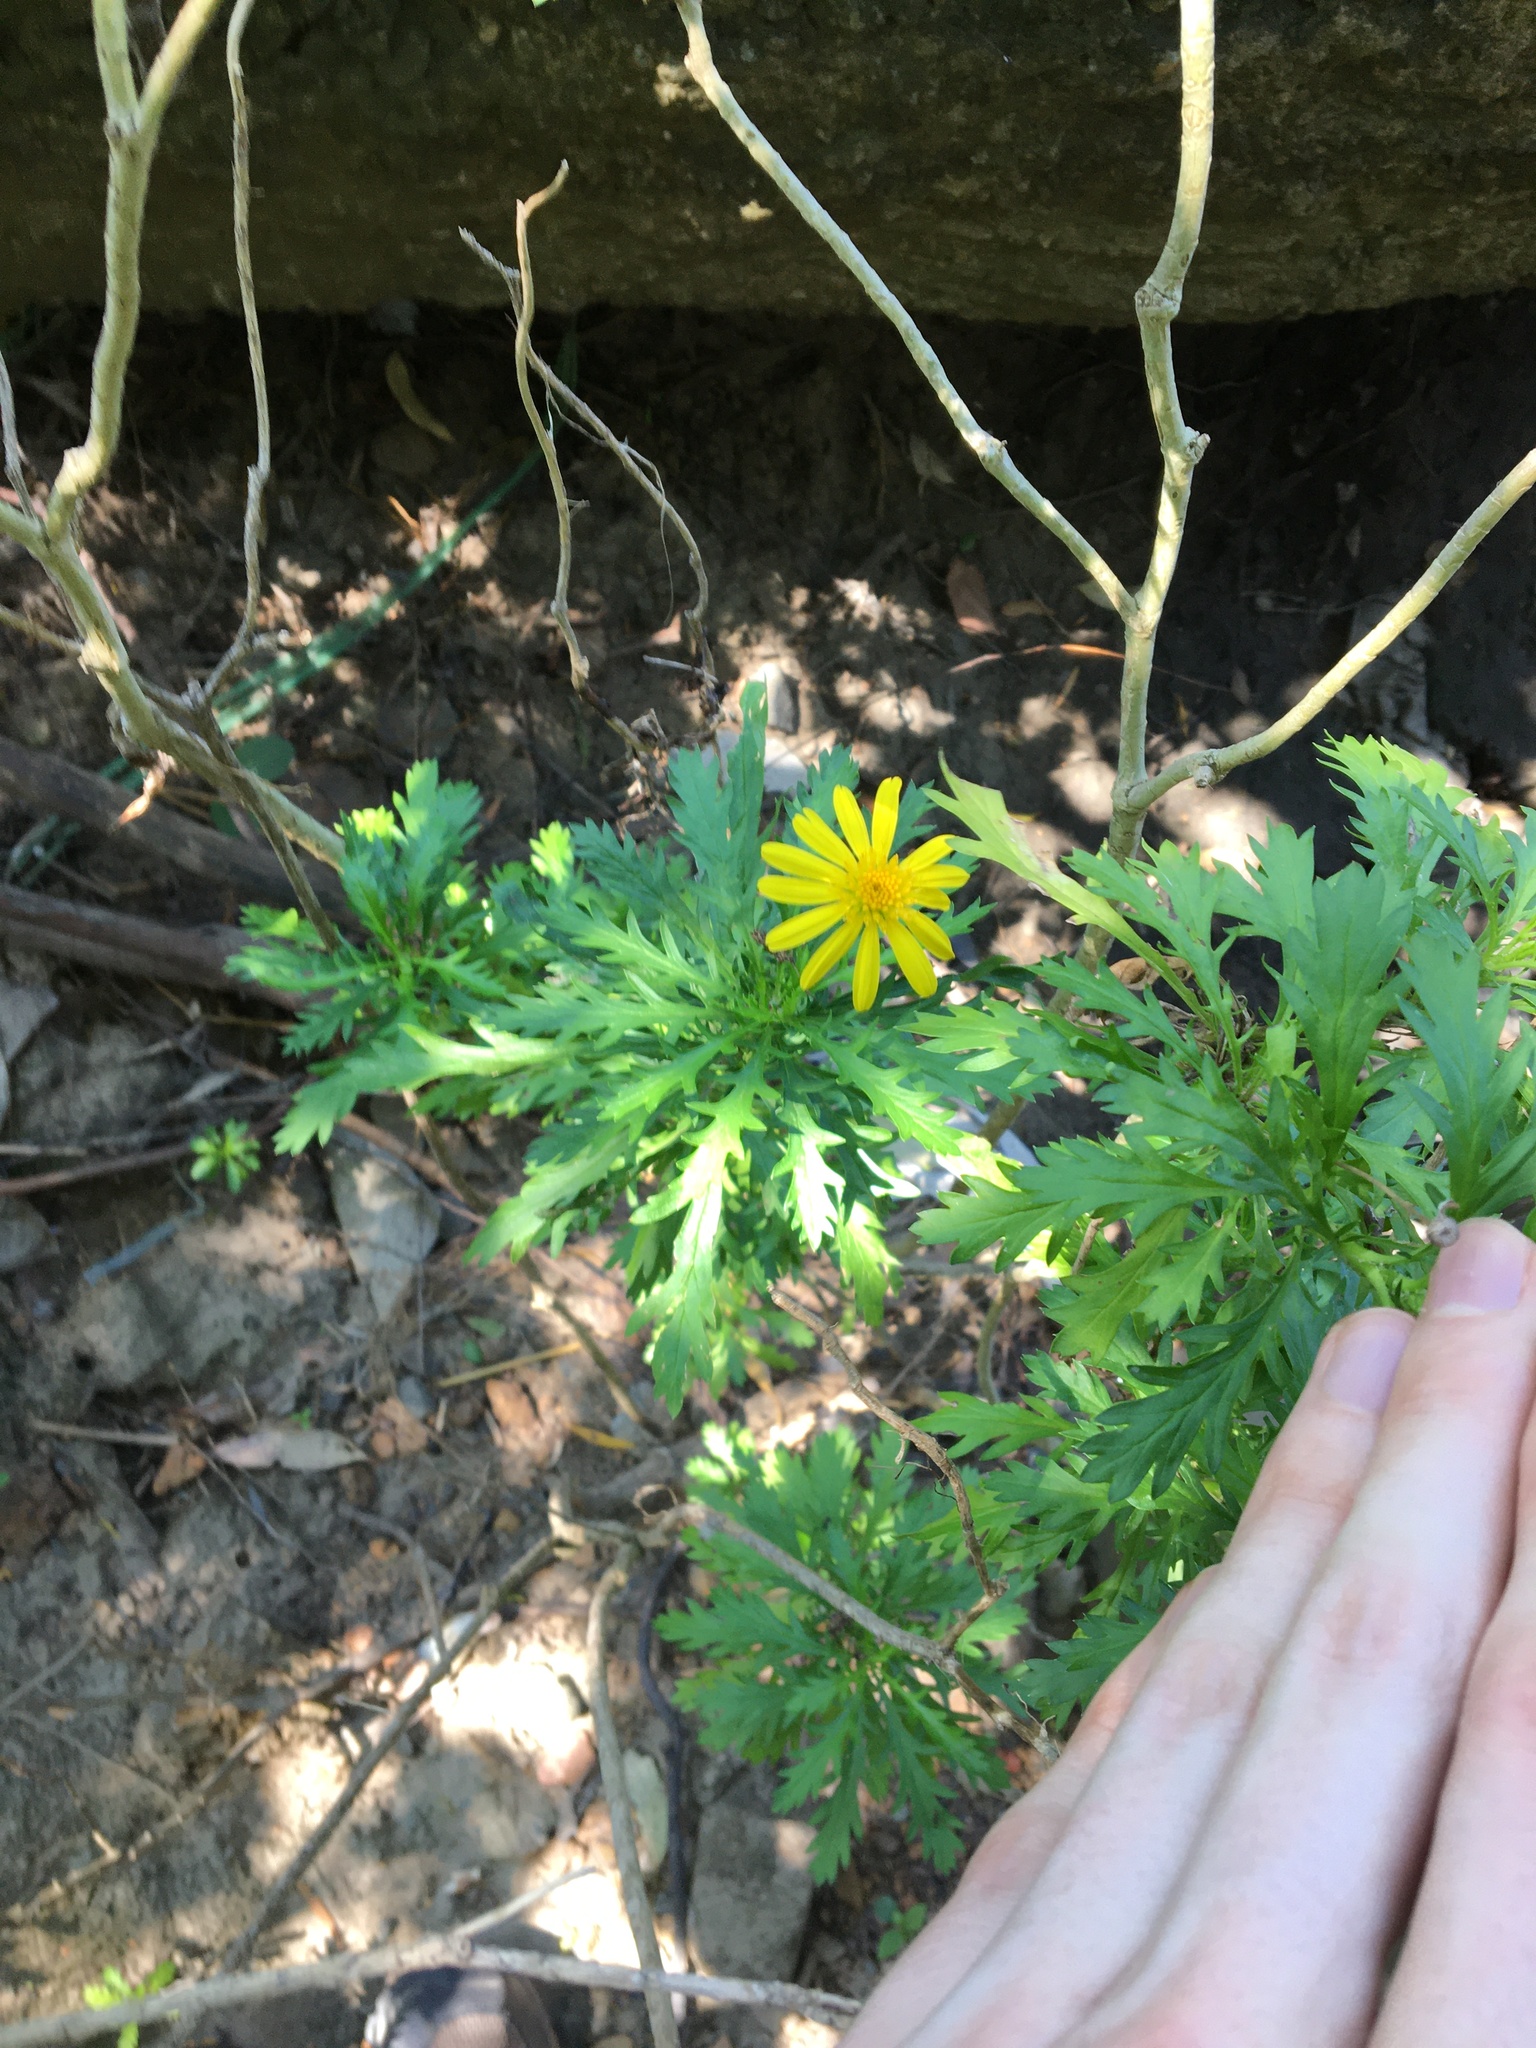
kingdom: Plantae
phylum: Tracheophyta
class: Magnoliopsida
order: Asterales
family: Asteraceae
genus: Euryops
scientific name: Euryops chrysanthemoides
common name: Bull's eye
